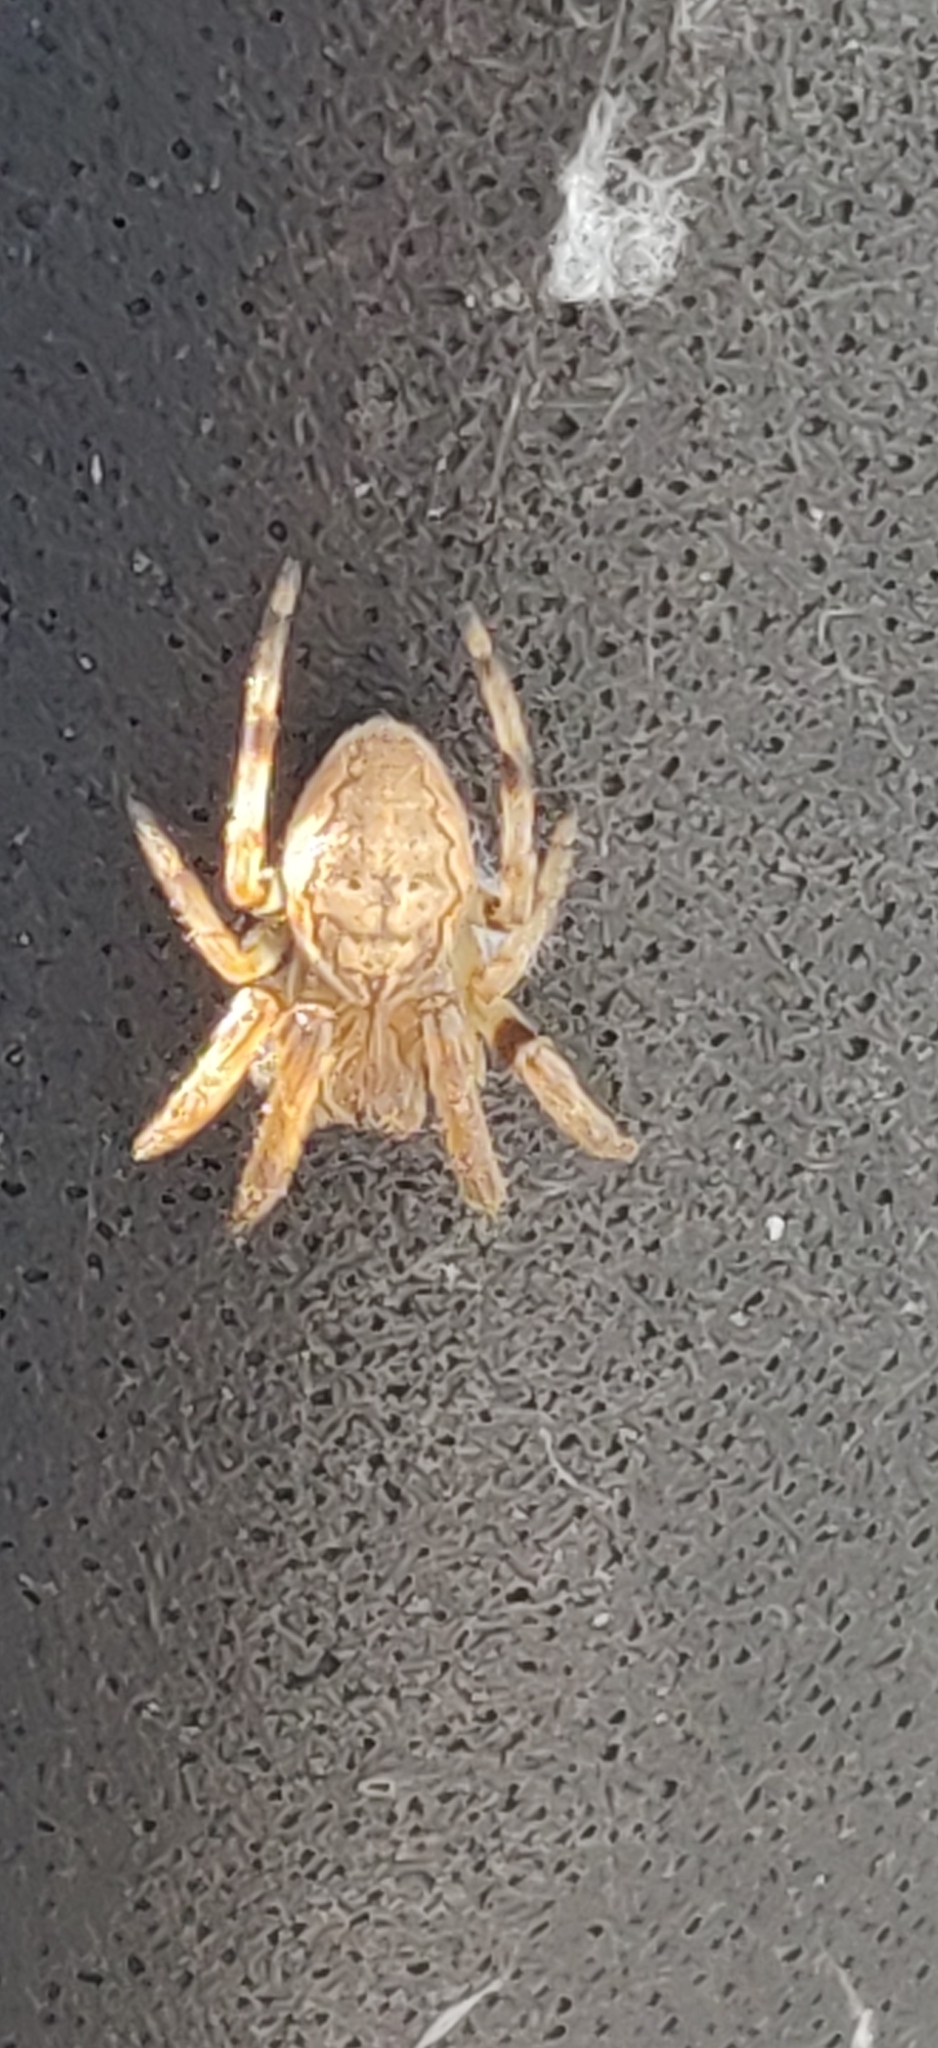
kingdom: Animalia
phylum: Arthropoda
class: Arachnida
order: Araneae
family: Araneidae
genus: Larinioides
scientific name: Larinioides cornutus
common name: Furrow orbweaver
